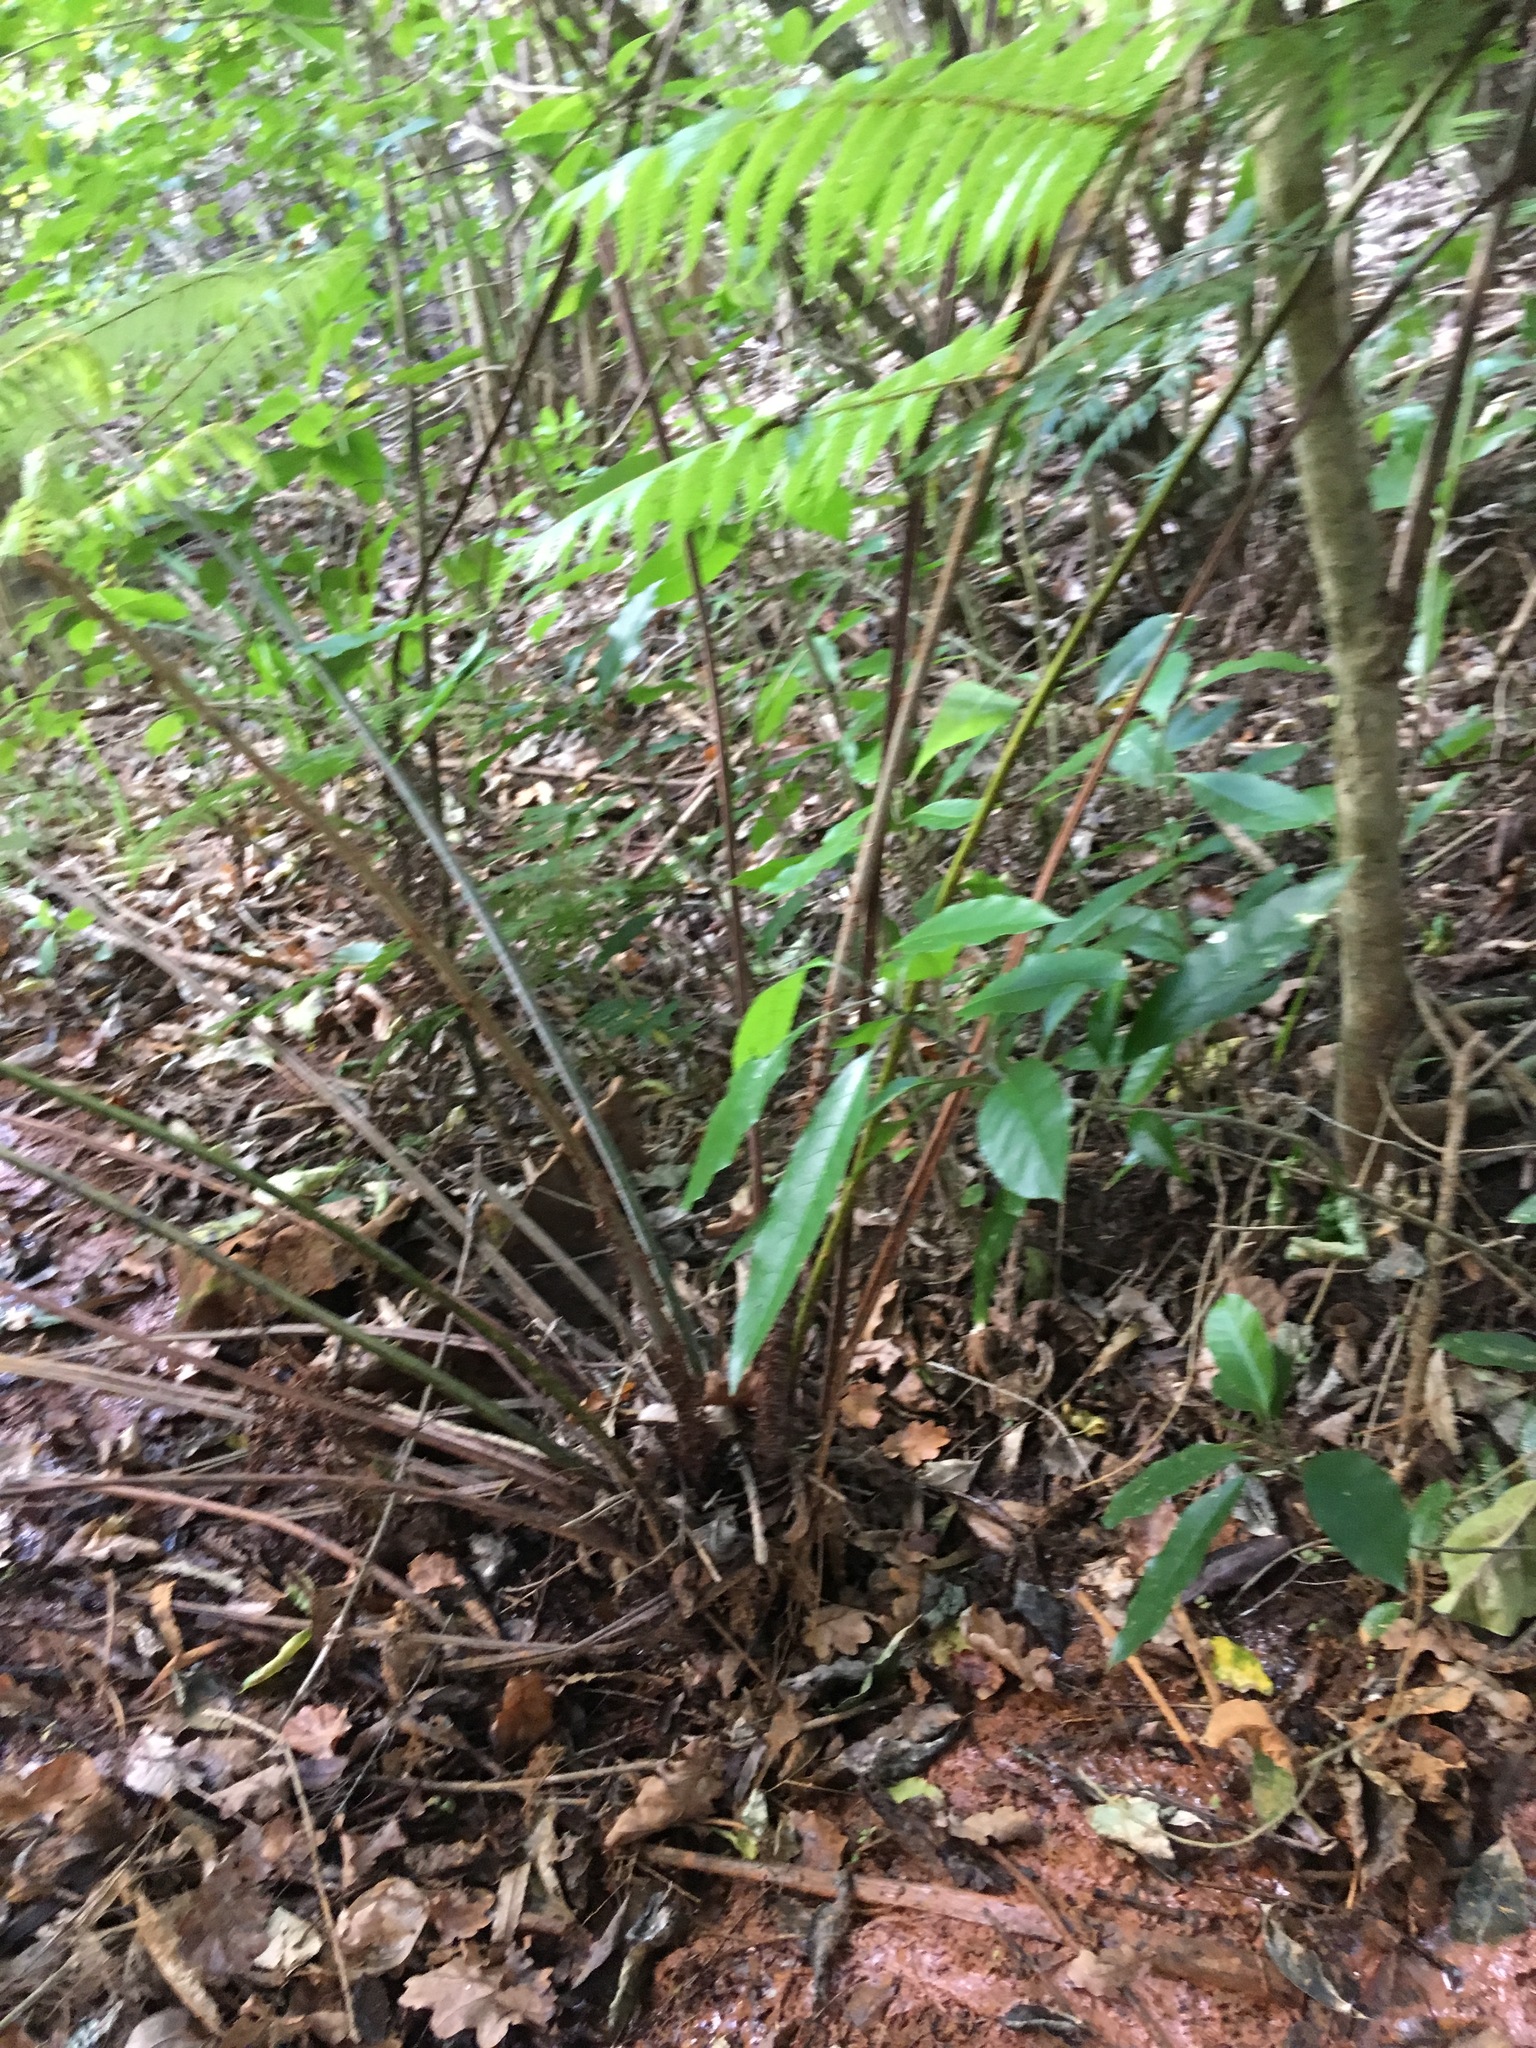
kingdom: Plantae
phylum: Tracheophyta
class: Polypodiopsida
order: Cyatheales
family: Cyatheaceae
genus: Alsophila
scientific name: Alsophila dealbata
